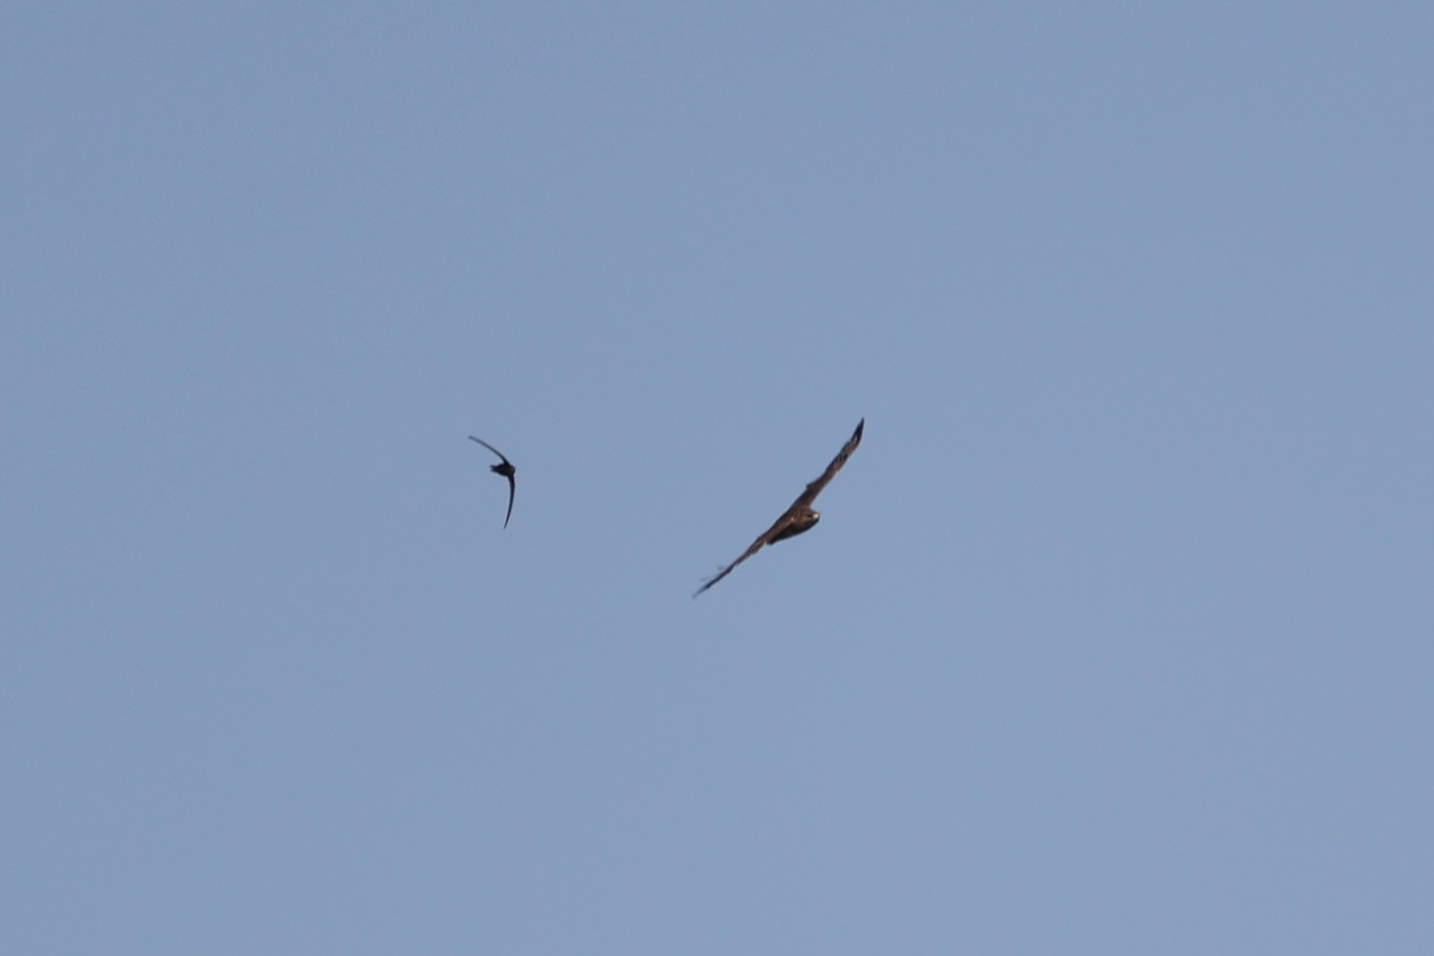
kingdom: Animalia
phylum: Chordata
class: Aves
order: Apodiformes
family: Apodidae
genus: Apus
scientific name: Apus apus
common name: Common swift
